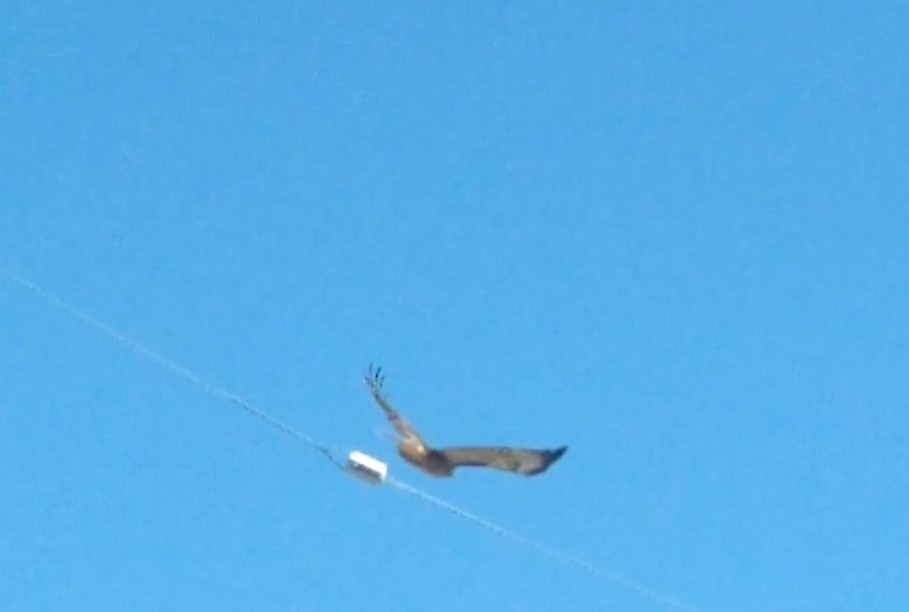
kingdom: Animalia
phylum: Chordata
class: Aves
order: Accipitriformes
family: Accipitridae
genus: Buteo
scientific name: Buteo jamaicensis
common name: Red-tailed hawk
